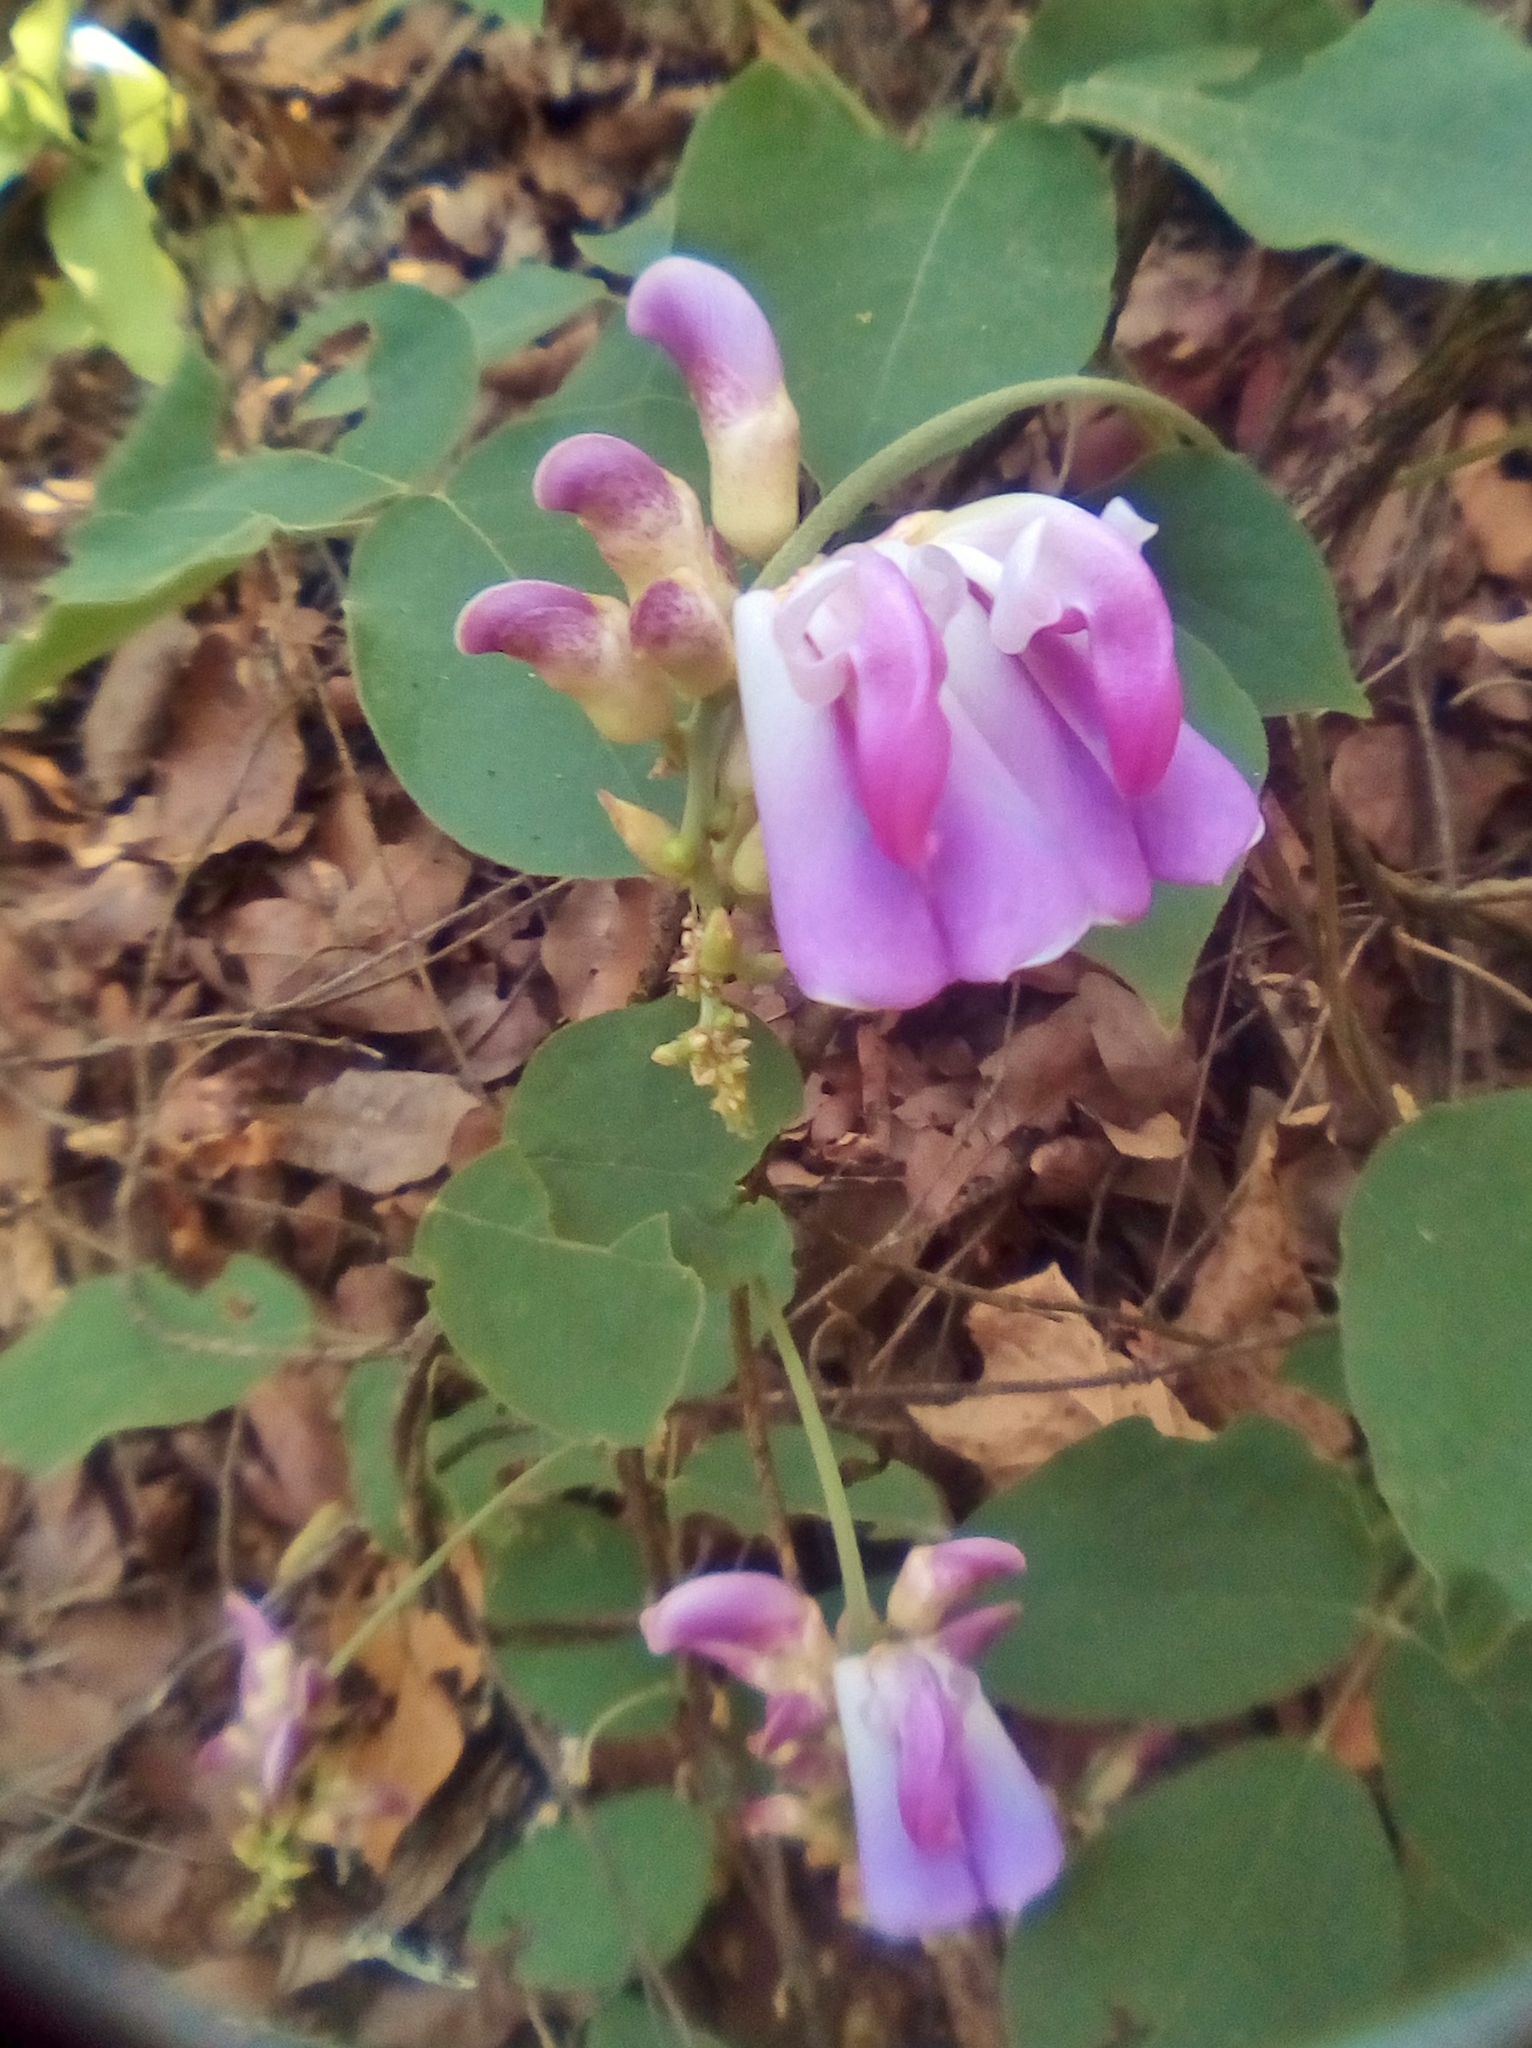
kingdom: Plantae
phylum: Tracheophyta
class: Magnoliopsida
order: Fabales
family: Fabaceae
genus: Canavalia
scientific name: Canavalia septentrionalis
